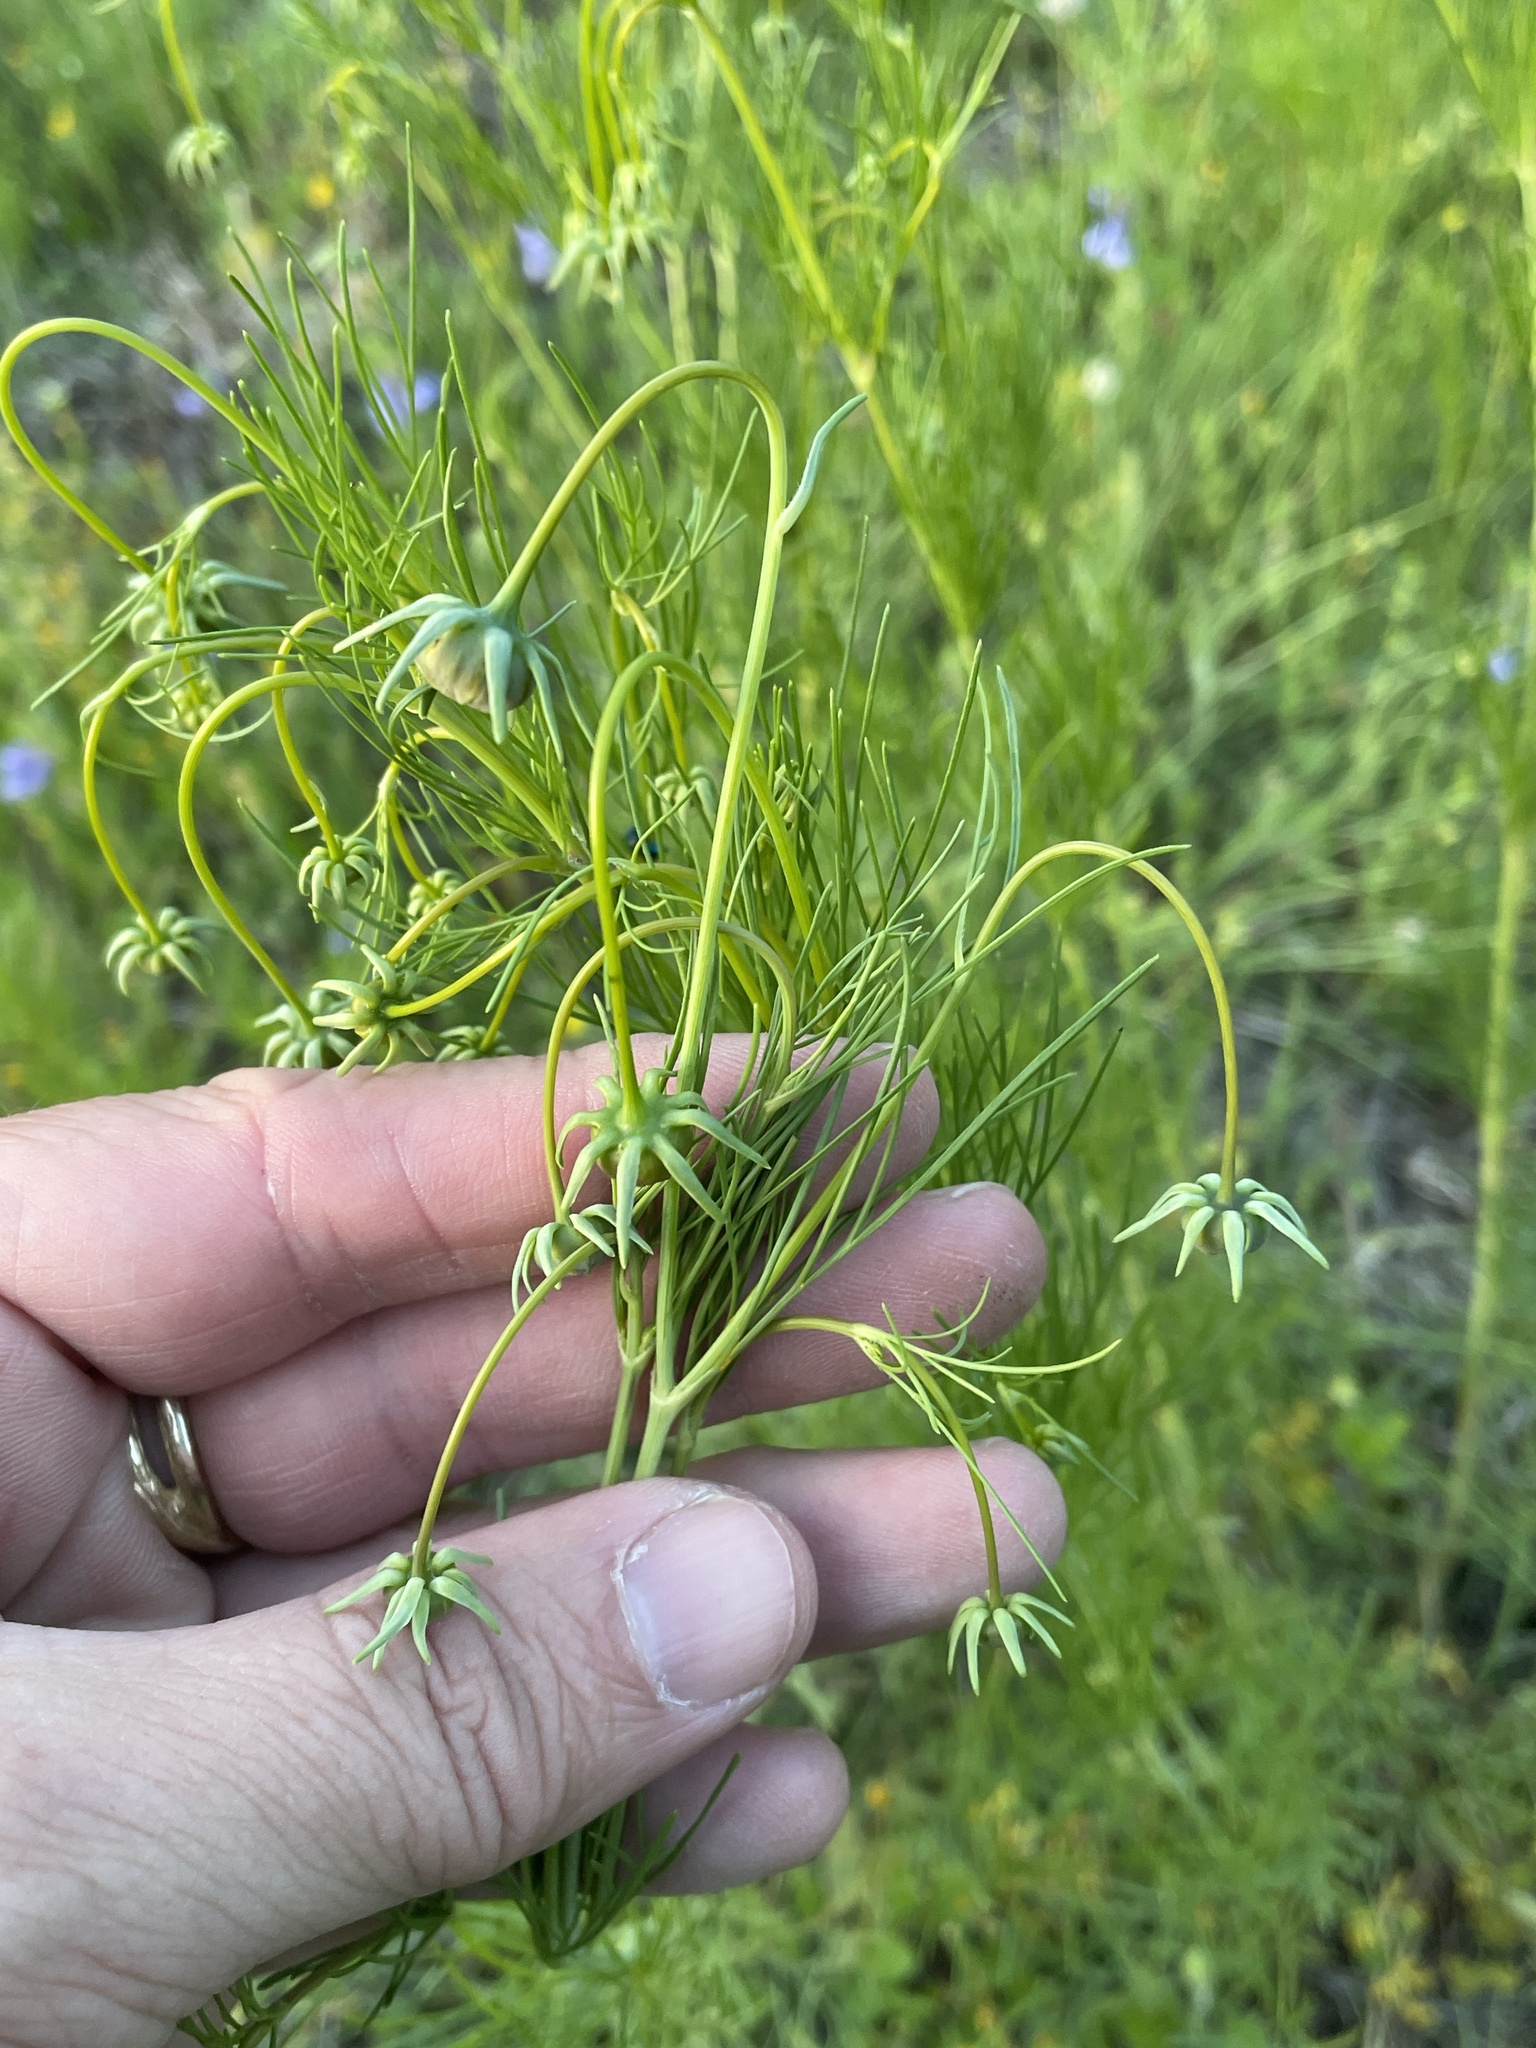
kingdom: Plantae
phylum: Tracheophyta
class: Magnoliopsida
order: Asterales
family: Asteraceae
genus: Thelesperma
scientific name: Thelesperma filifolium
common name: Stiff greenthread
